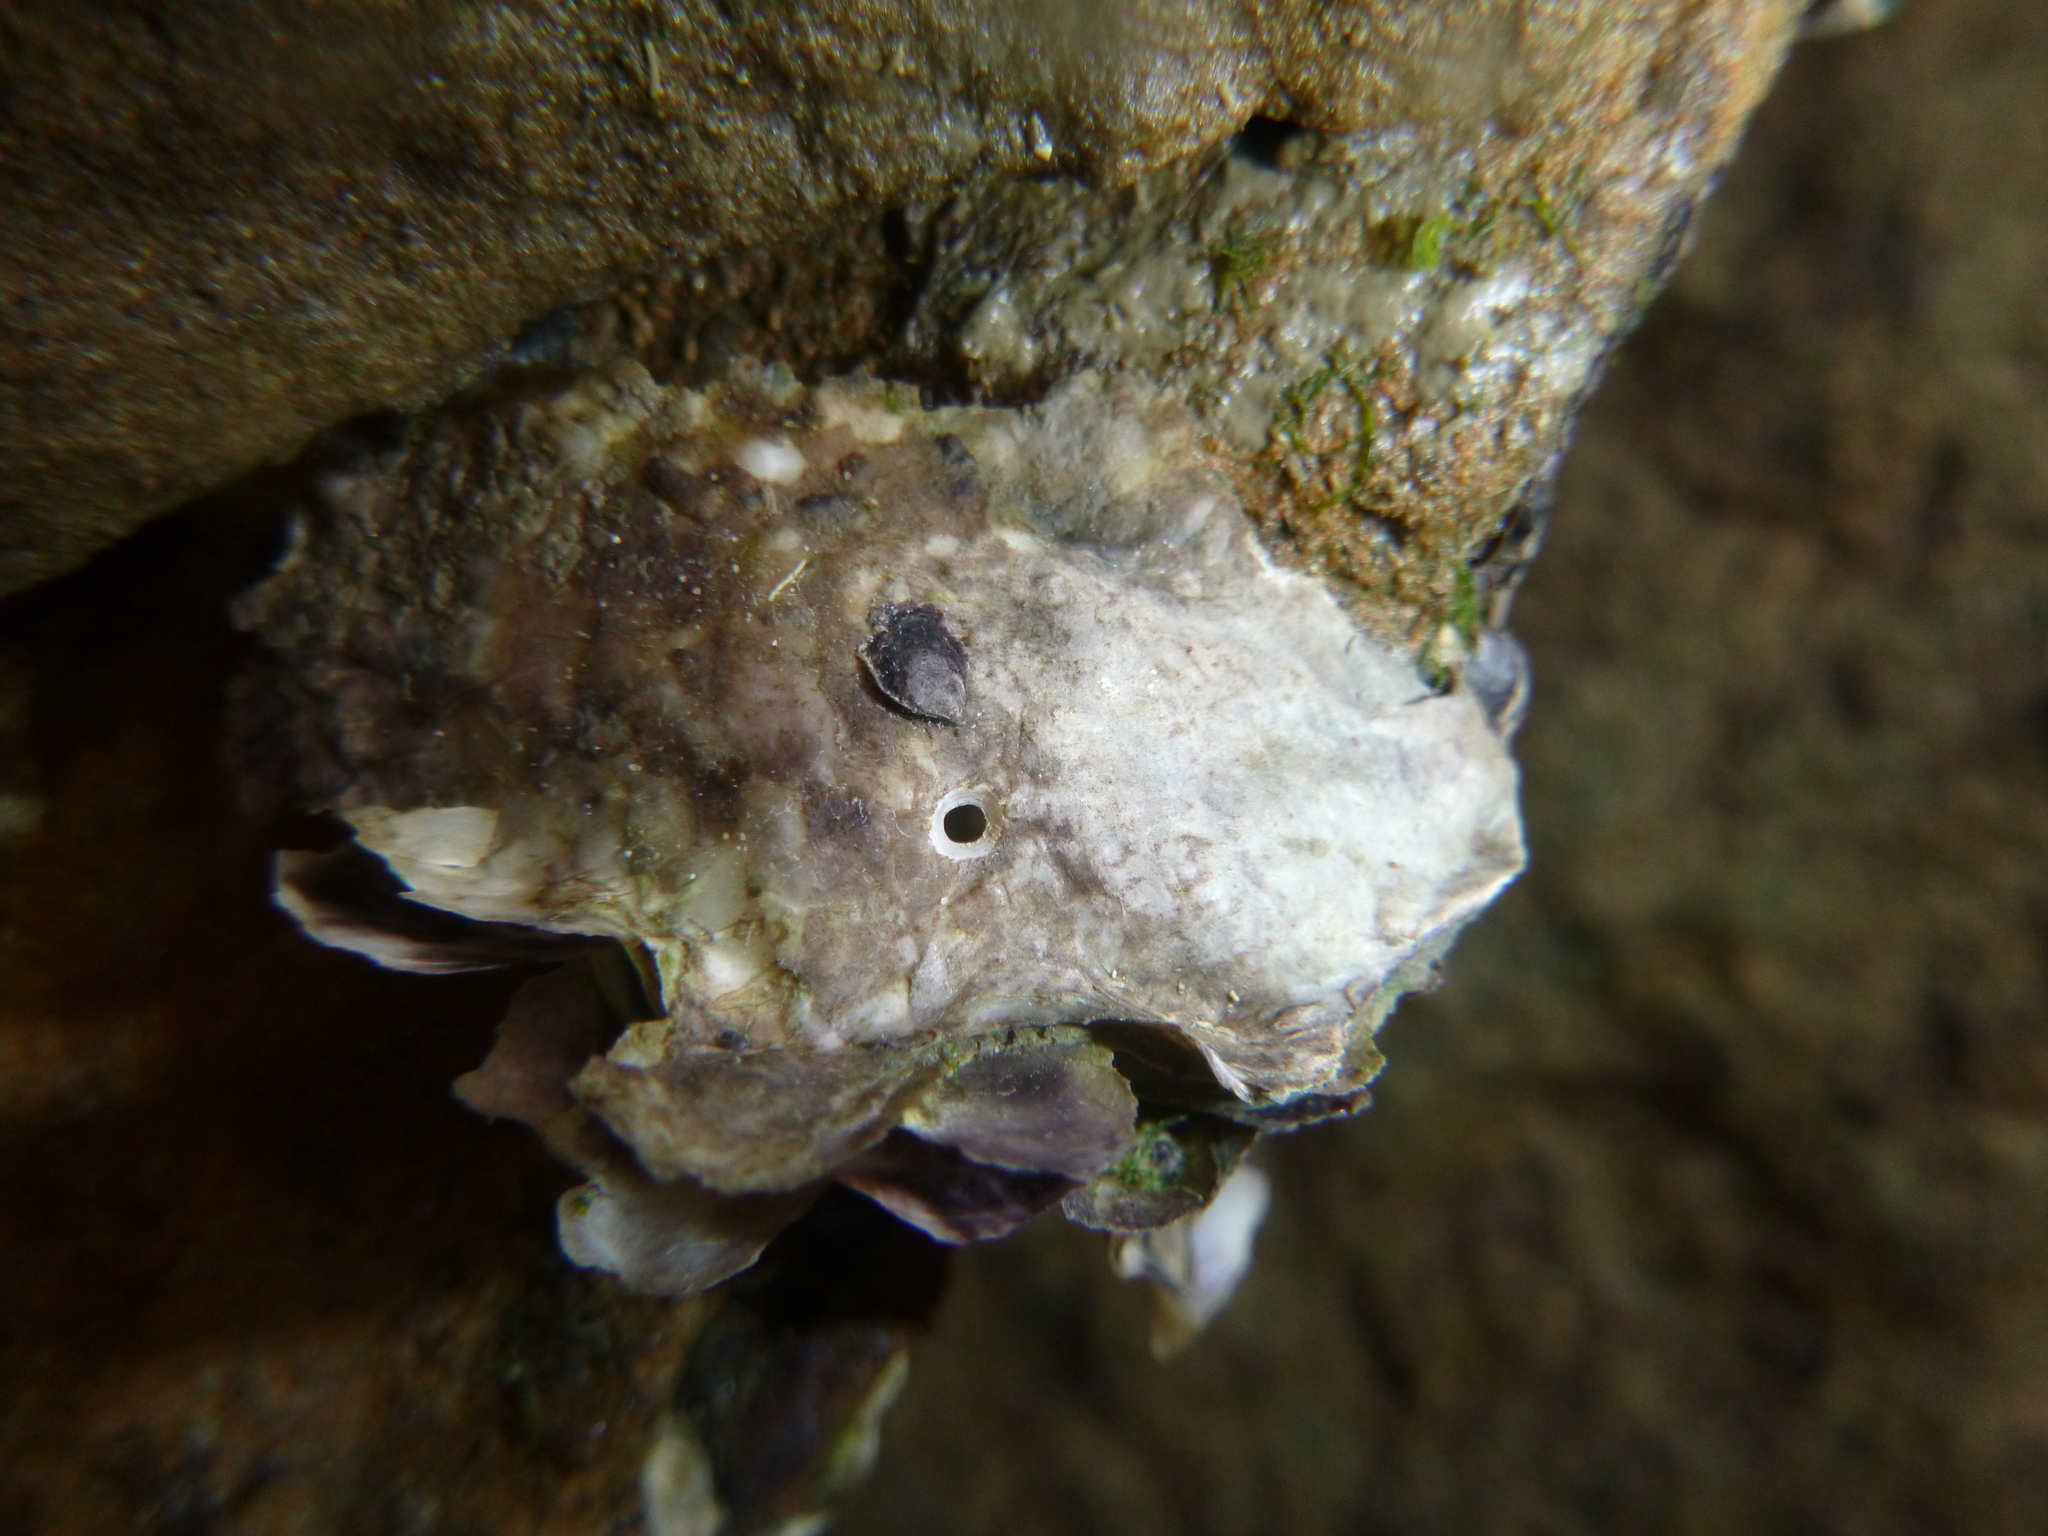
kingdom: Animalia
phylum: Mollusca
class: Bivalvia
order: Ostreida
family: Ostreidae
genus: Magallana
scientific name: Magallana gigas
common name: Pacific oyster
